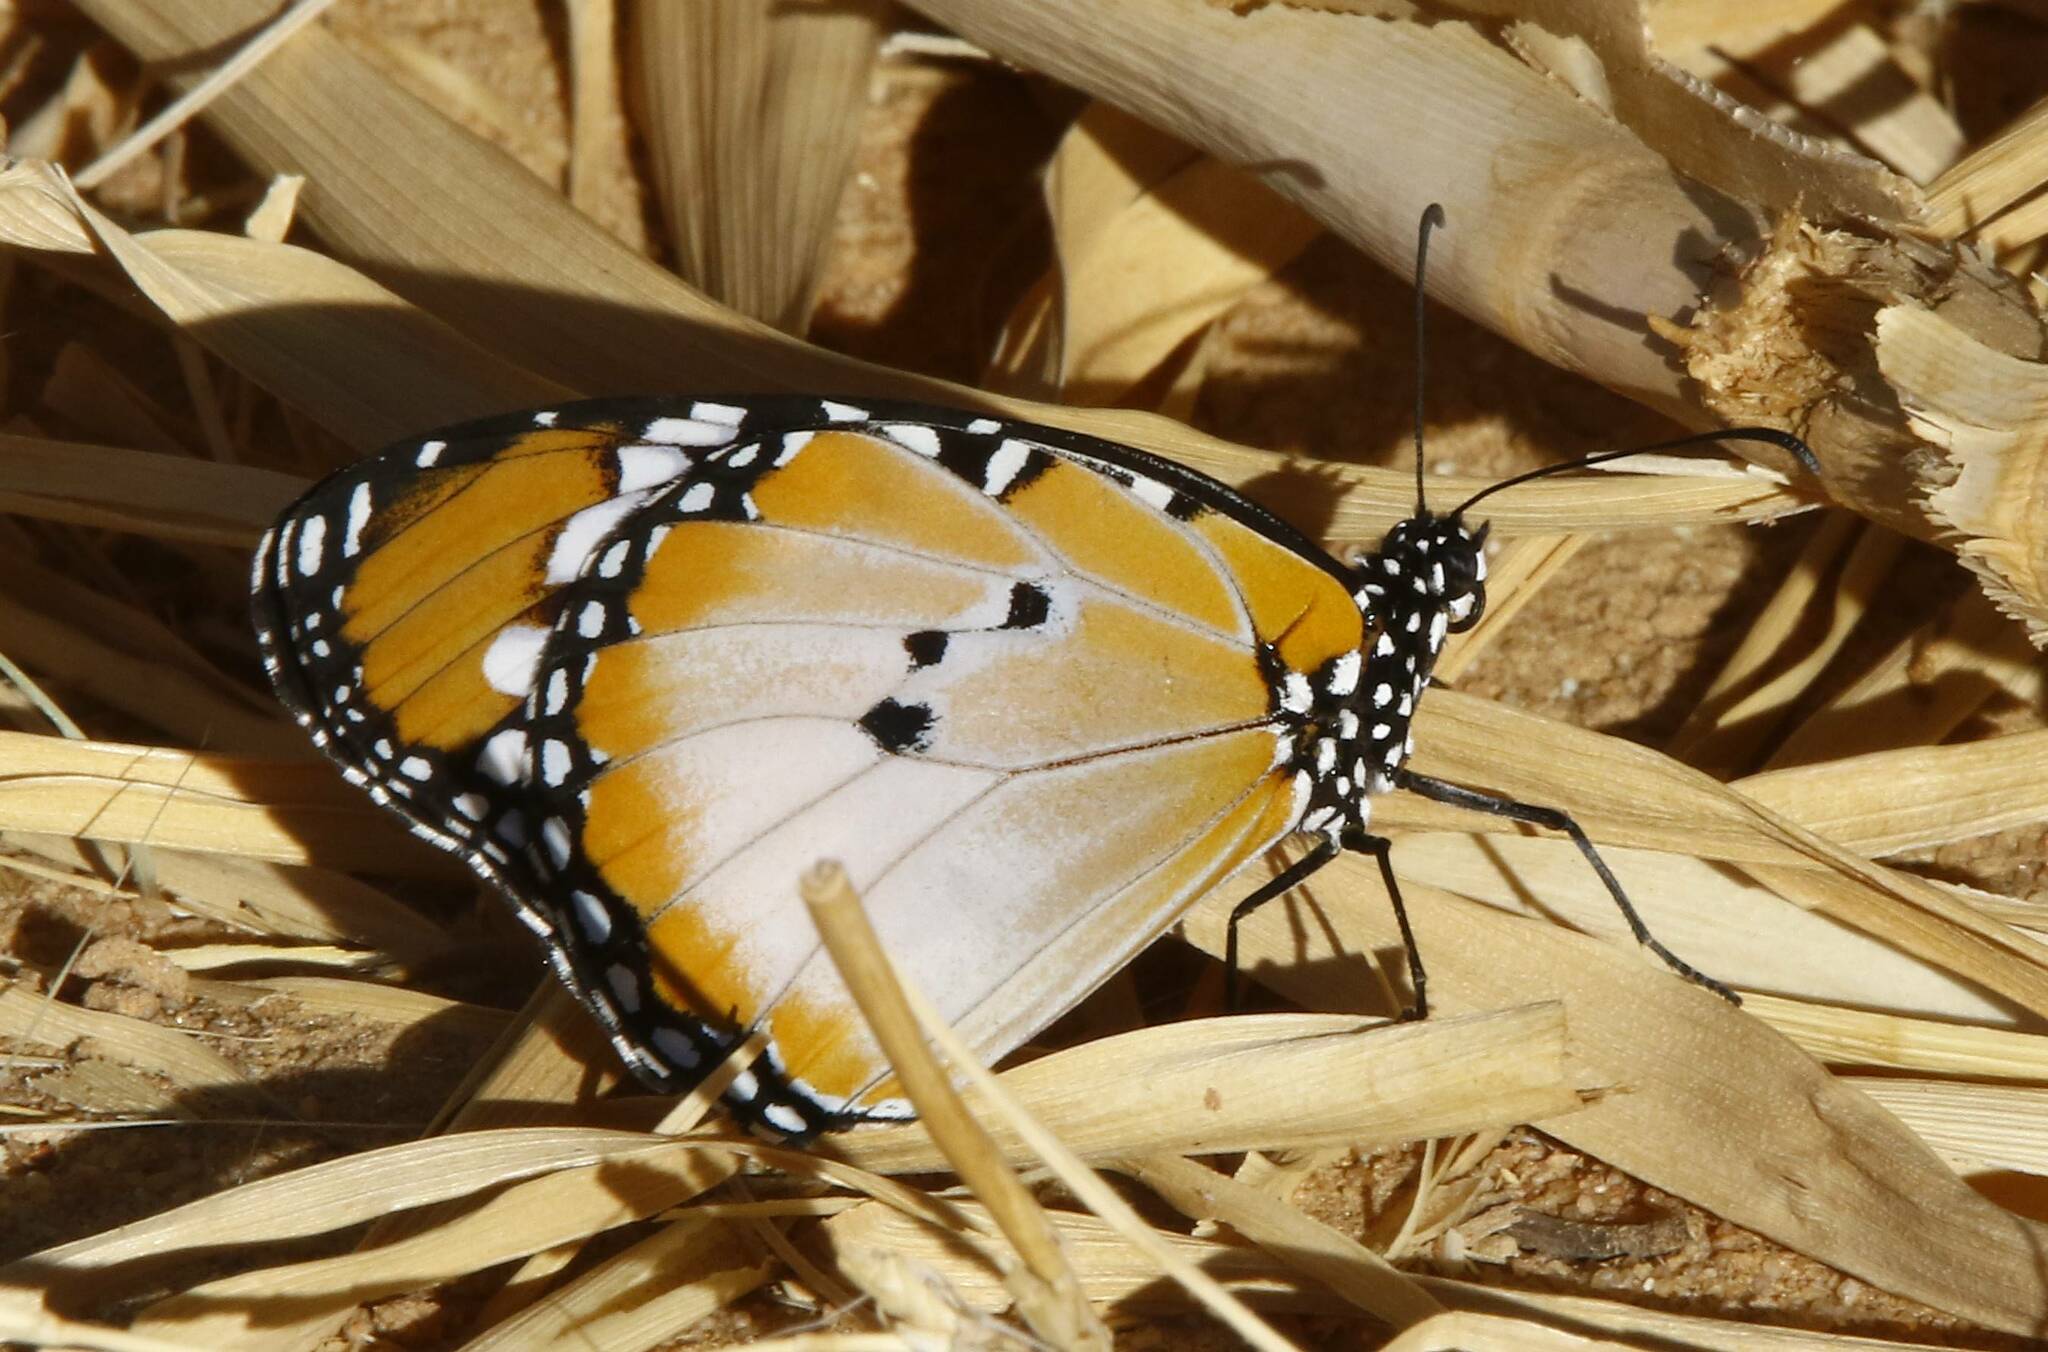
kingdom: Animalia
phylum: Arthropoda
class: Insecta
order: Lepidoptera
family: Nymphalidae
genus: Danaus
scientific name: Danaus chrysippus
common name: Plain tiger
